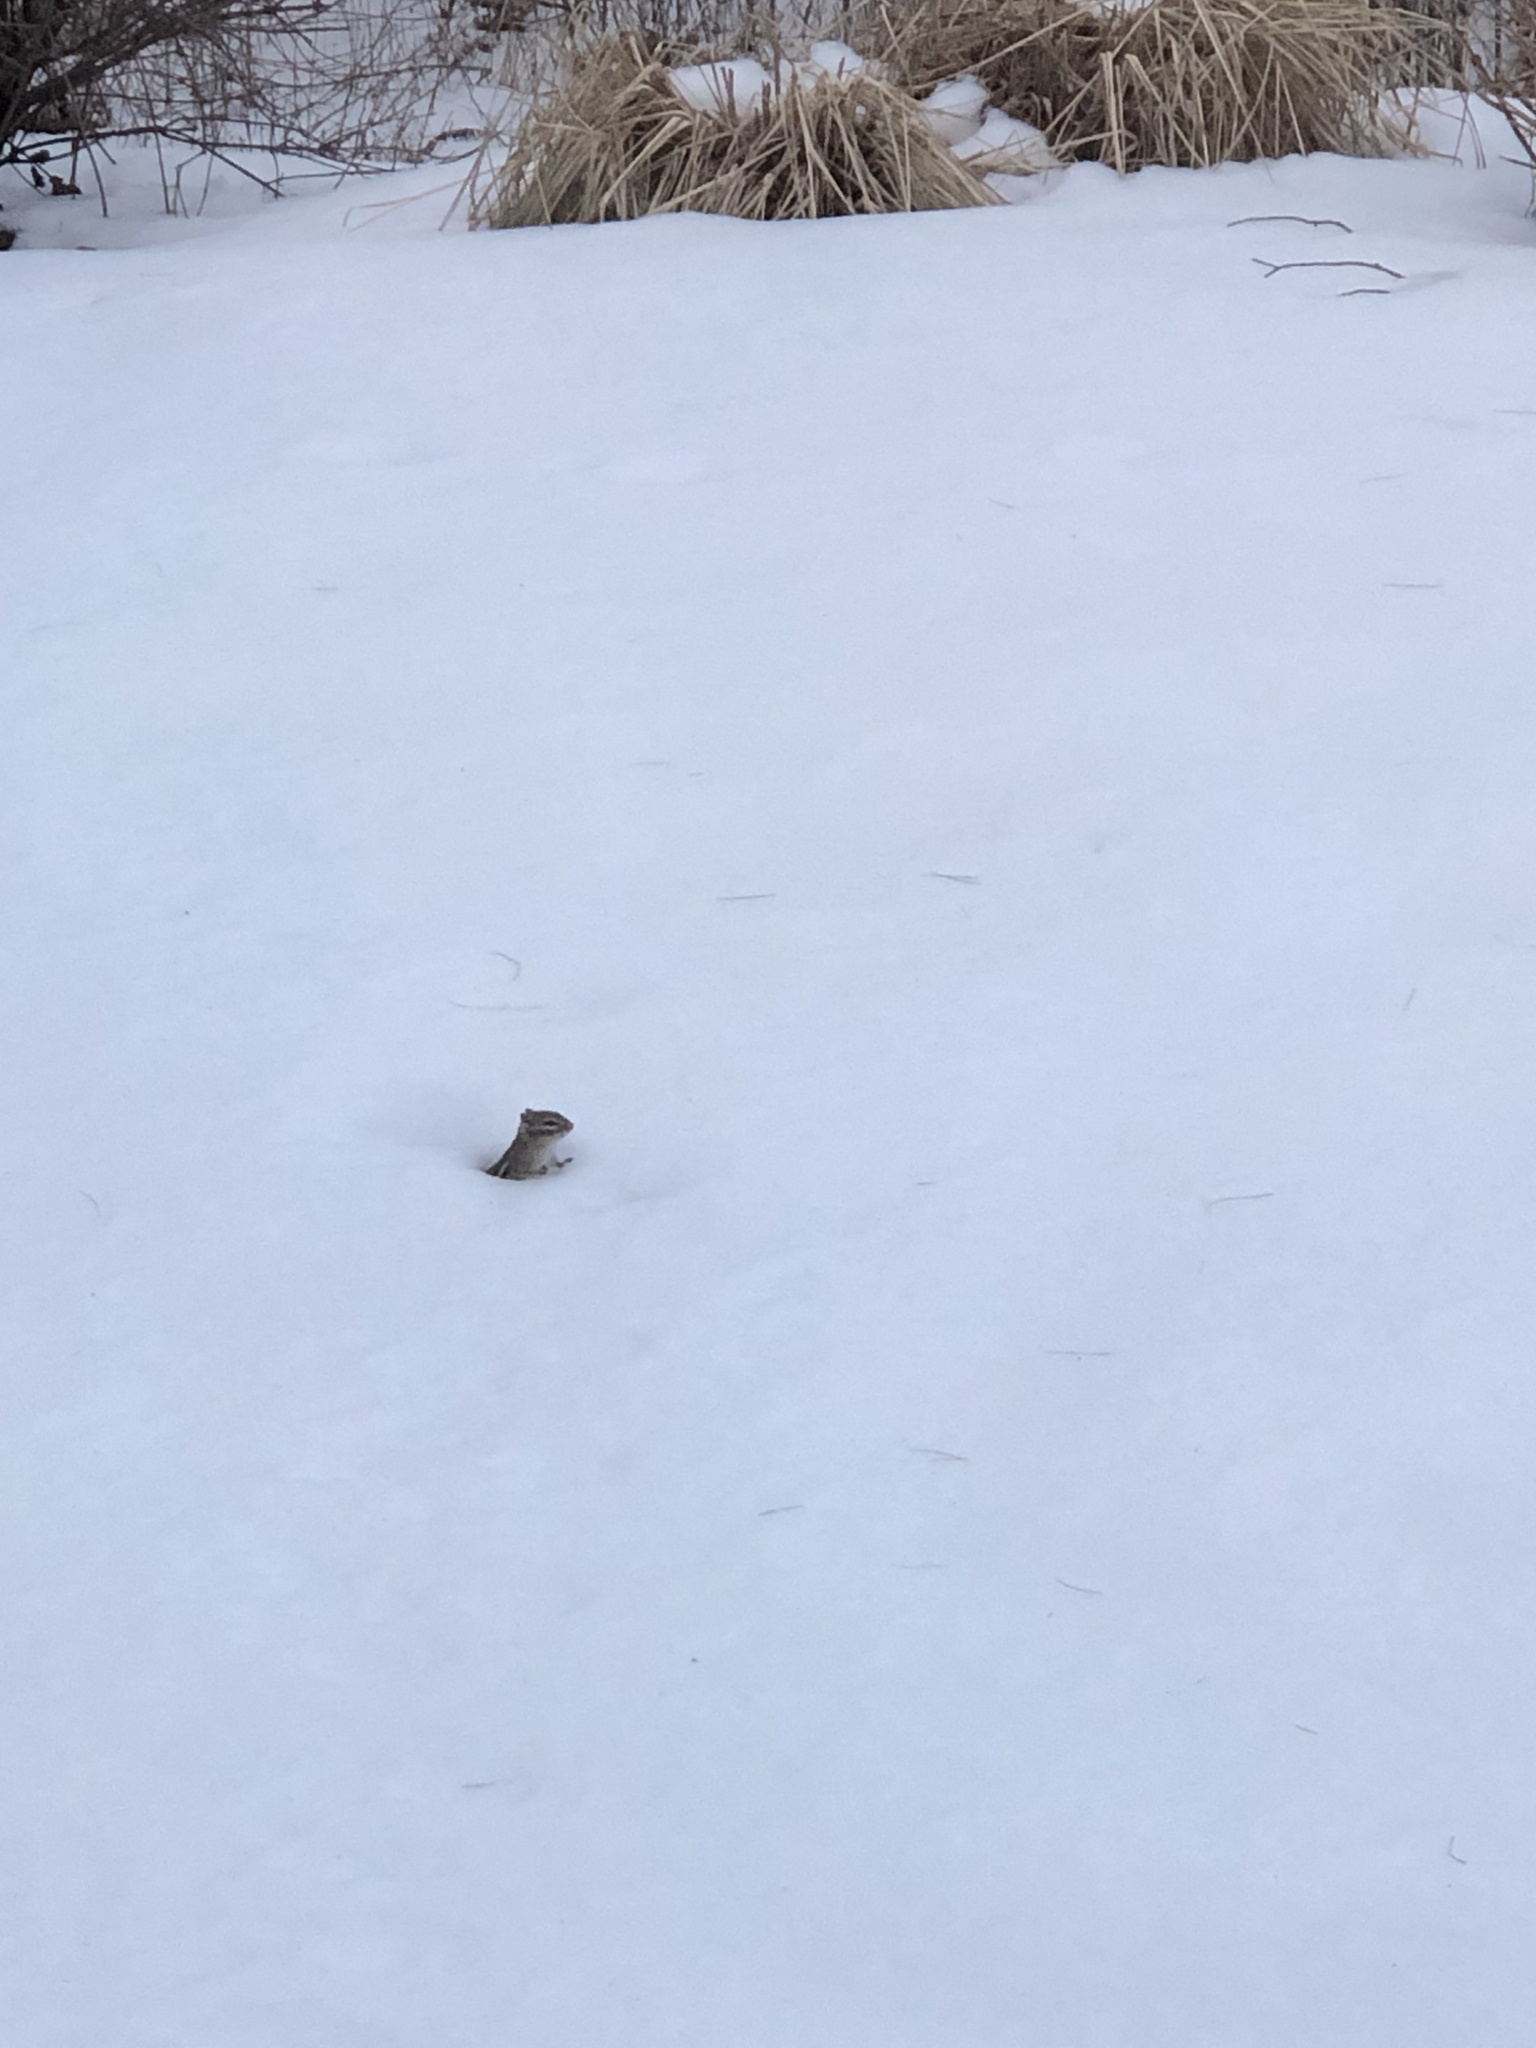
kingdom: Animalia
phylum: Chordata
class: Mammalia
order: Rodentia
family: Sciuridae
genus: Tamias
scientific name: Tamias striatus
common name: Eastern chipmunk
